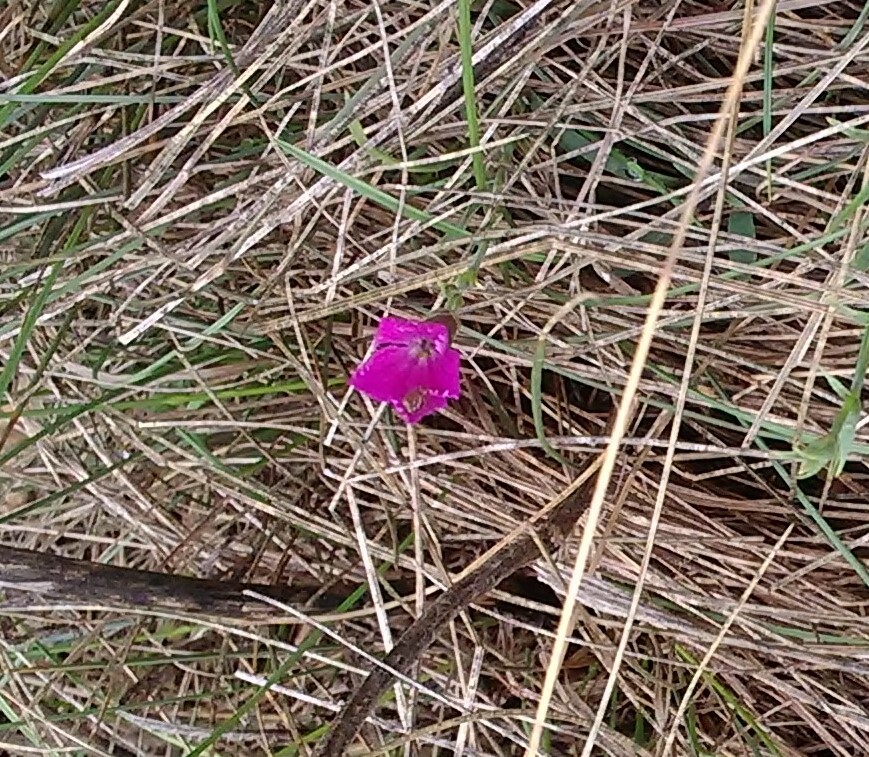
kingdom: Plantae
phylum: Tracheophyta
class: Magnoliopsida
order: Caryophyllales
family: Caryophyllaceae
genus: Dianthus
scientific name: Dianthus chinensis
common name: Rainbow pink
